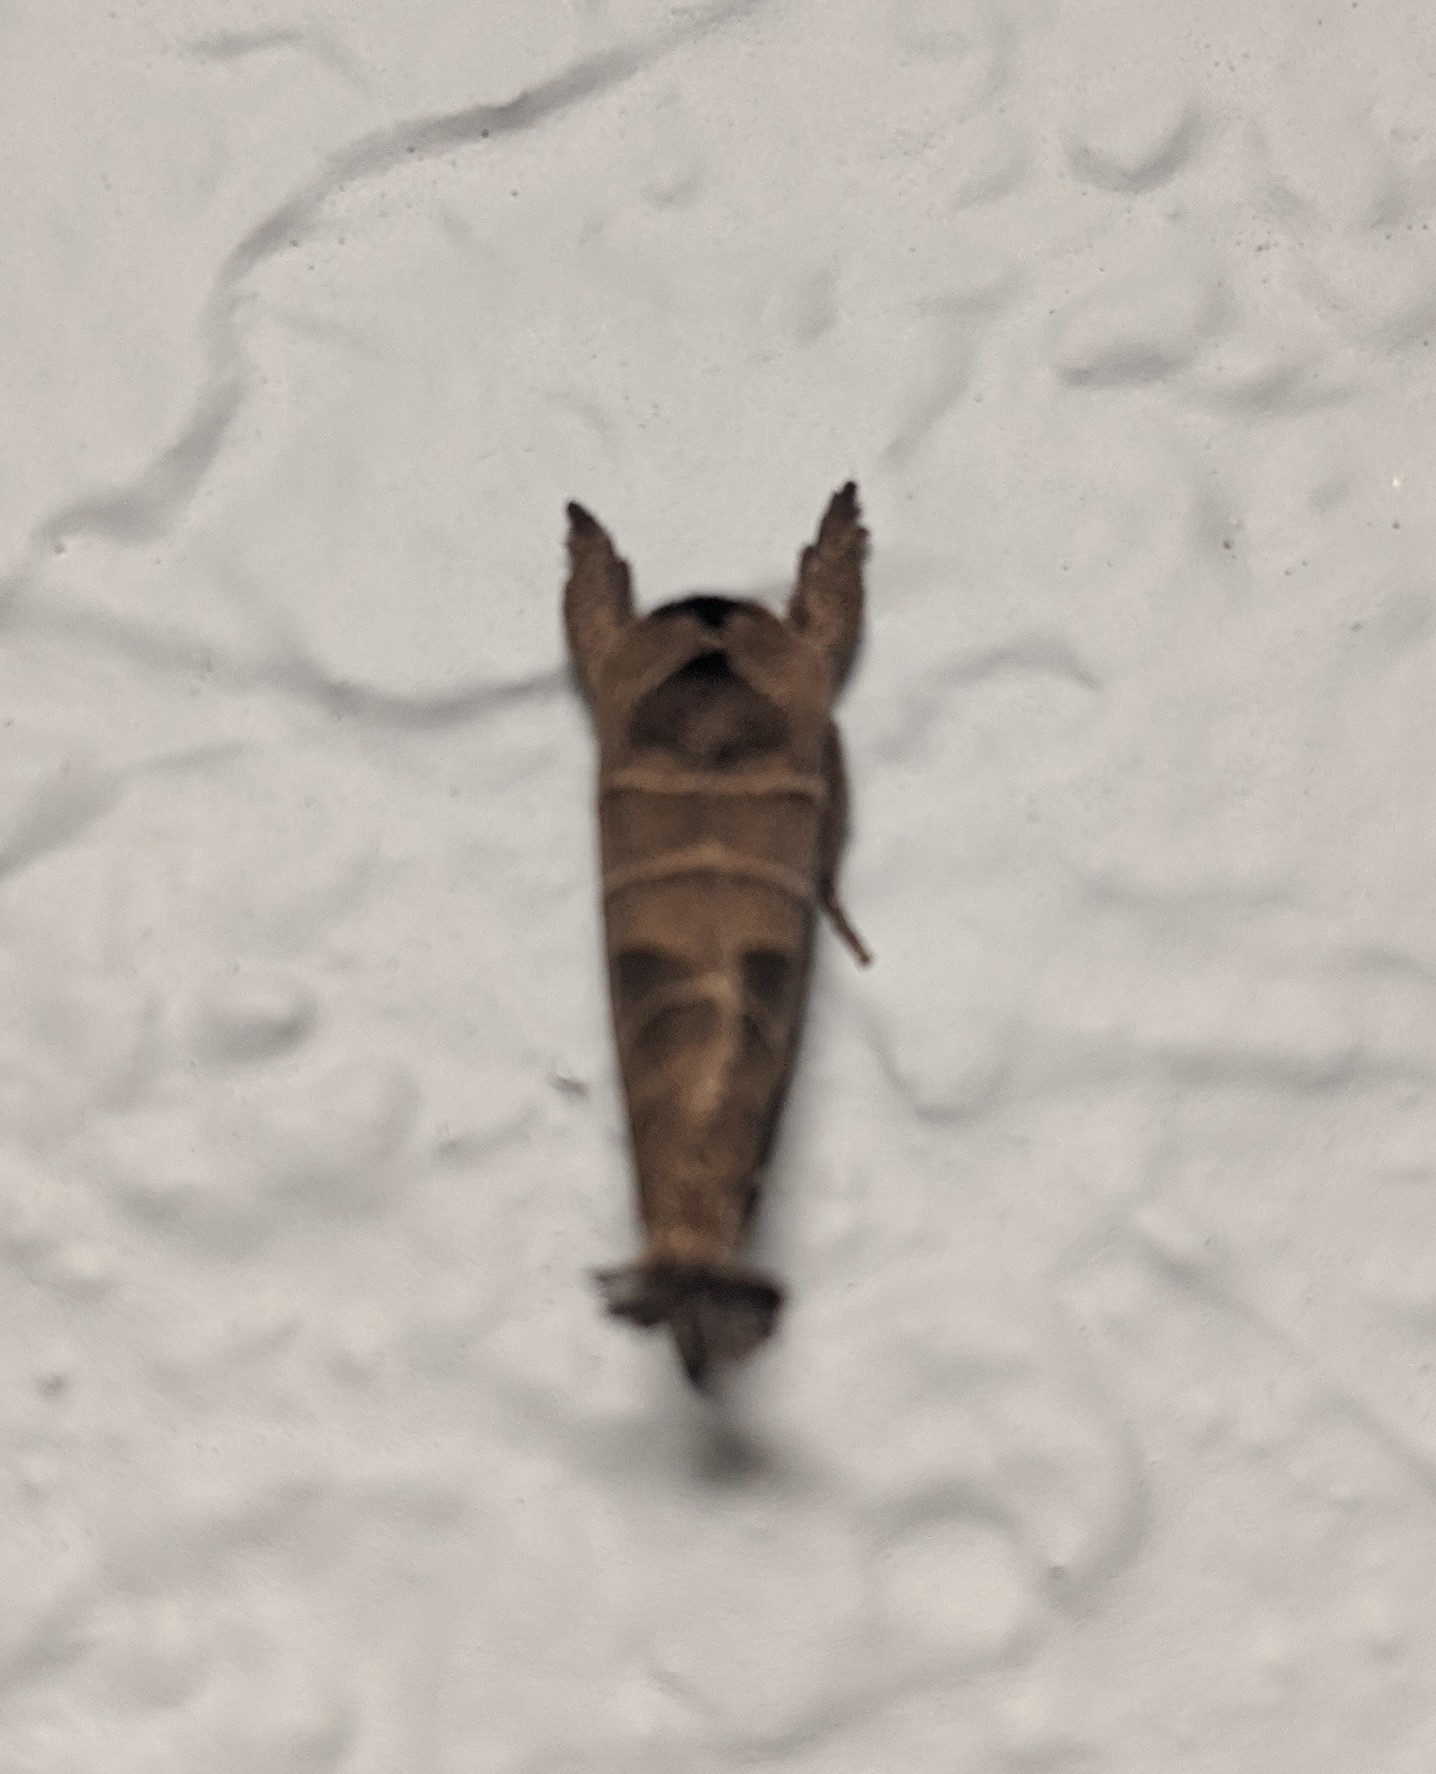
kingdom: Animalia
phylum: Arthropoda
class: Insecta
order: Lepidoptera
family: Notodontidae
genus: Clostera
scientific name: Clostera albosigma
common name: Sigmoid prominent
